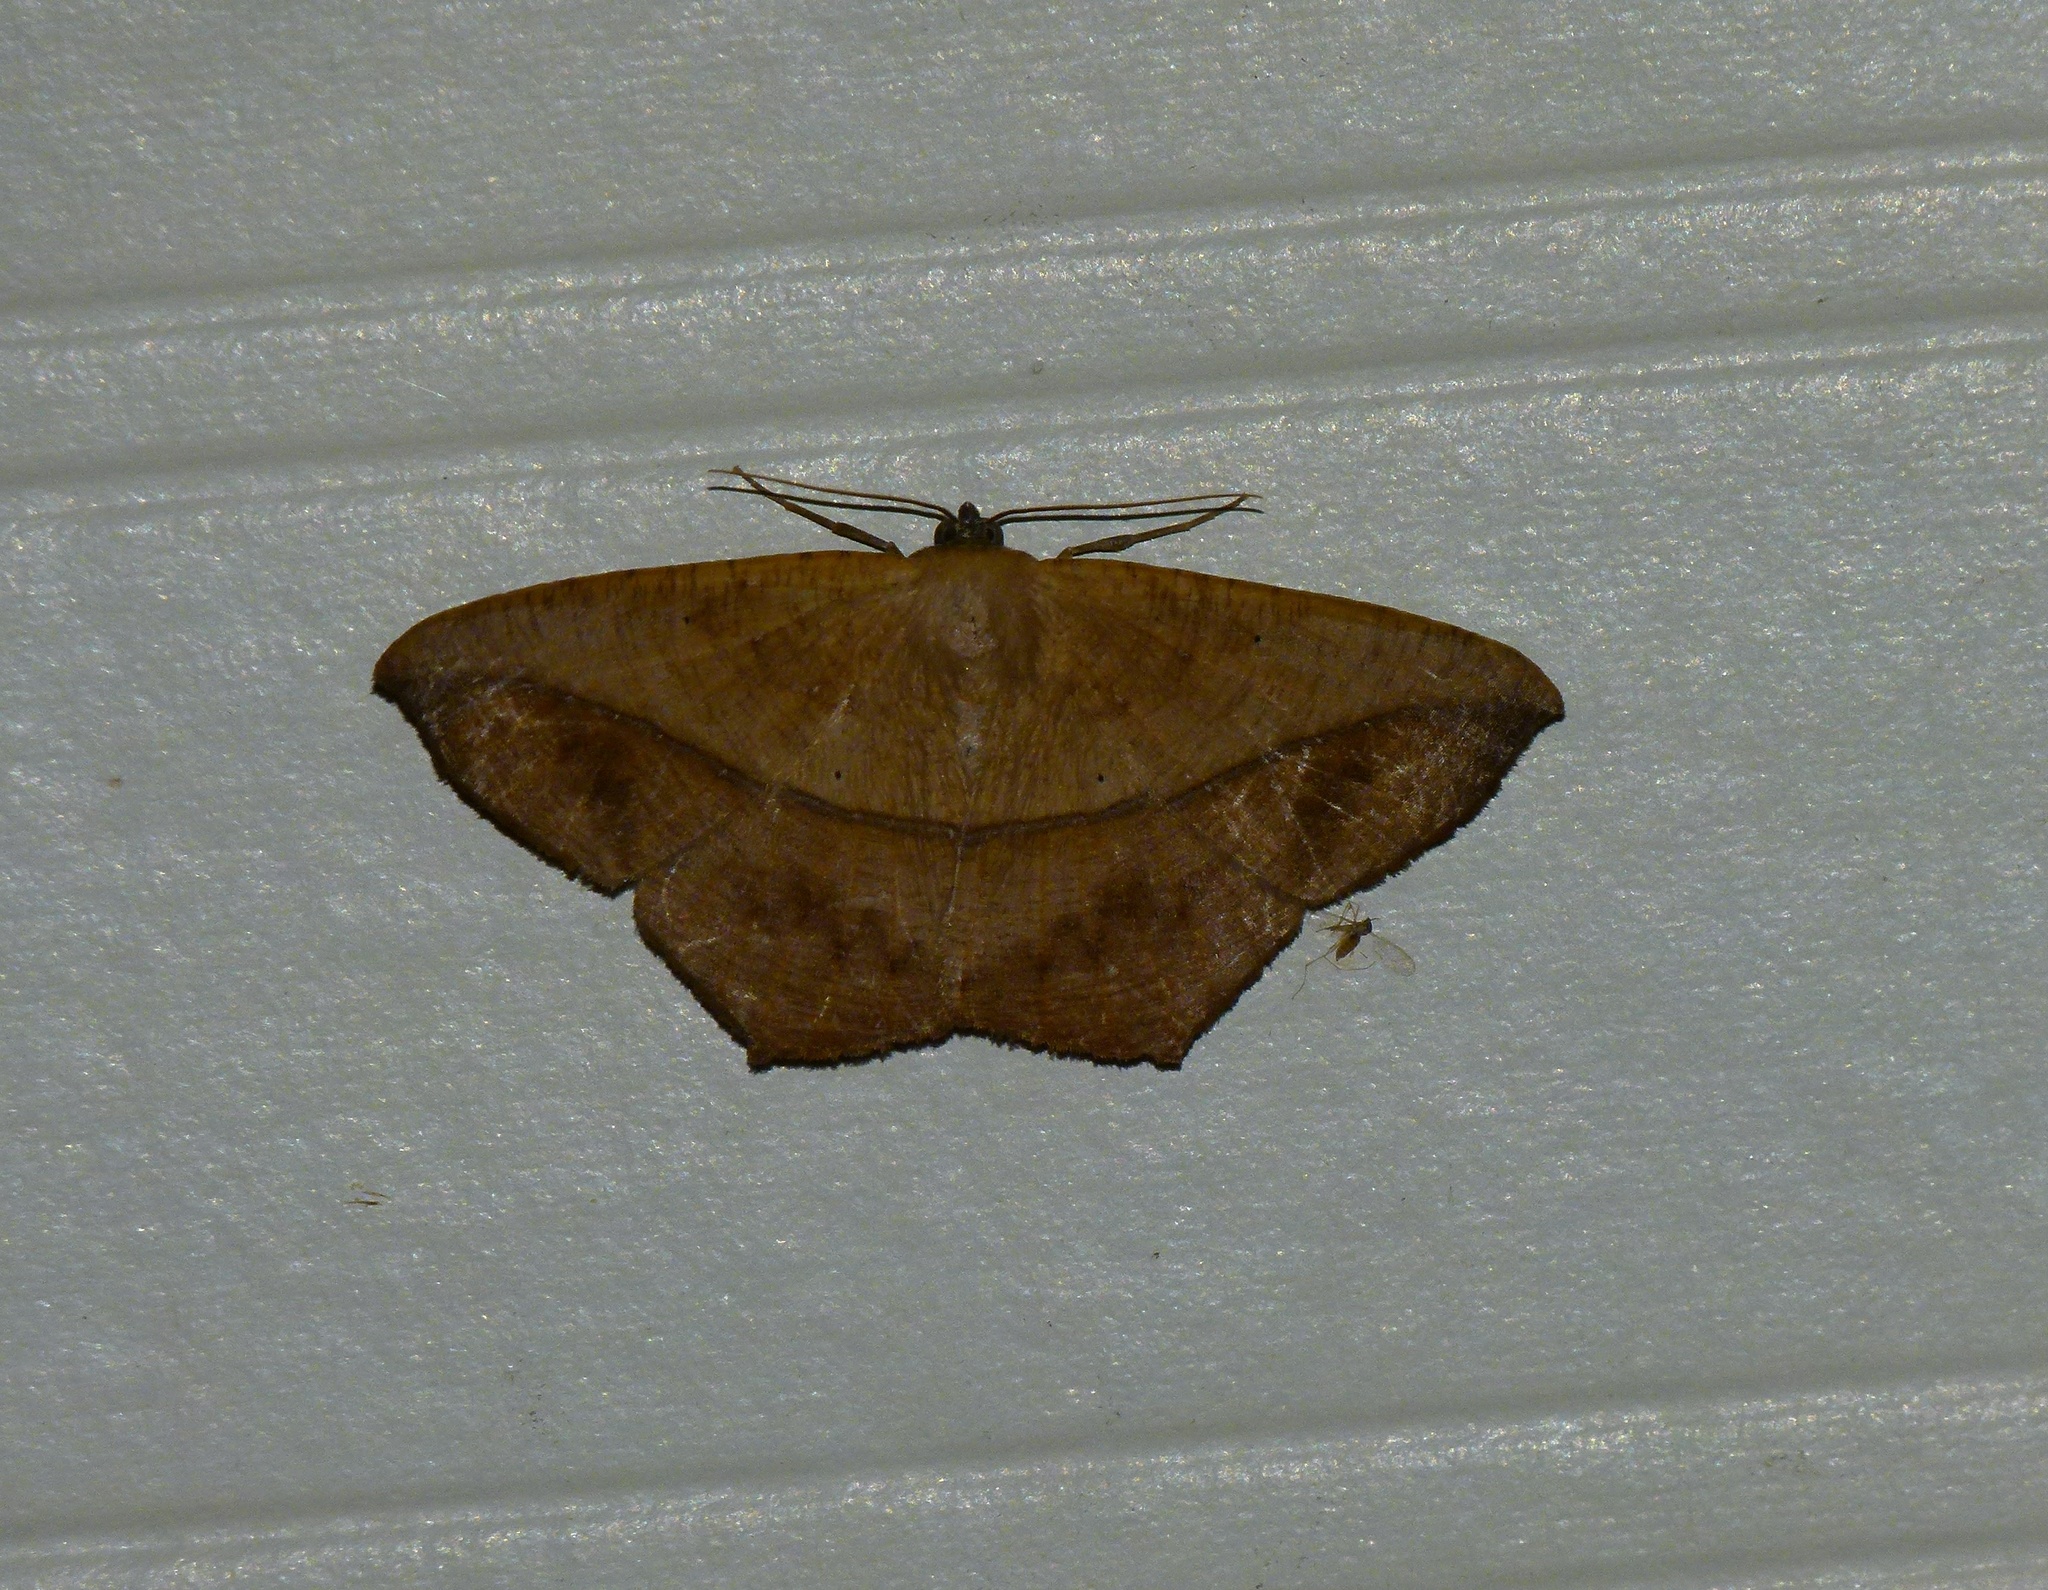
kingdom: Animalia
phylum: Arthropoda
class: Insecta
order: Lepidoptera
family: Geometridae
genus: Prochoerodes
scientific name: Prochoerodes lineola
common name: Large maple spanworm
